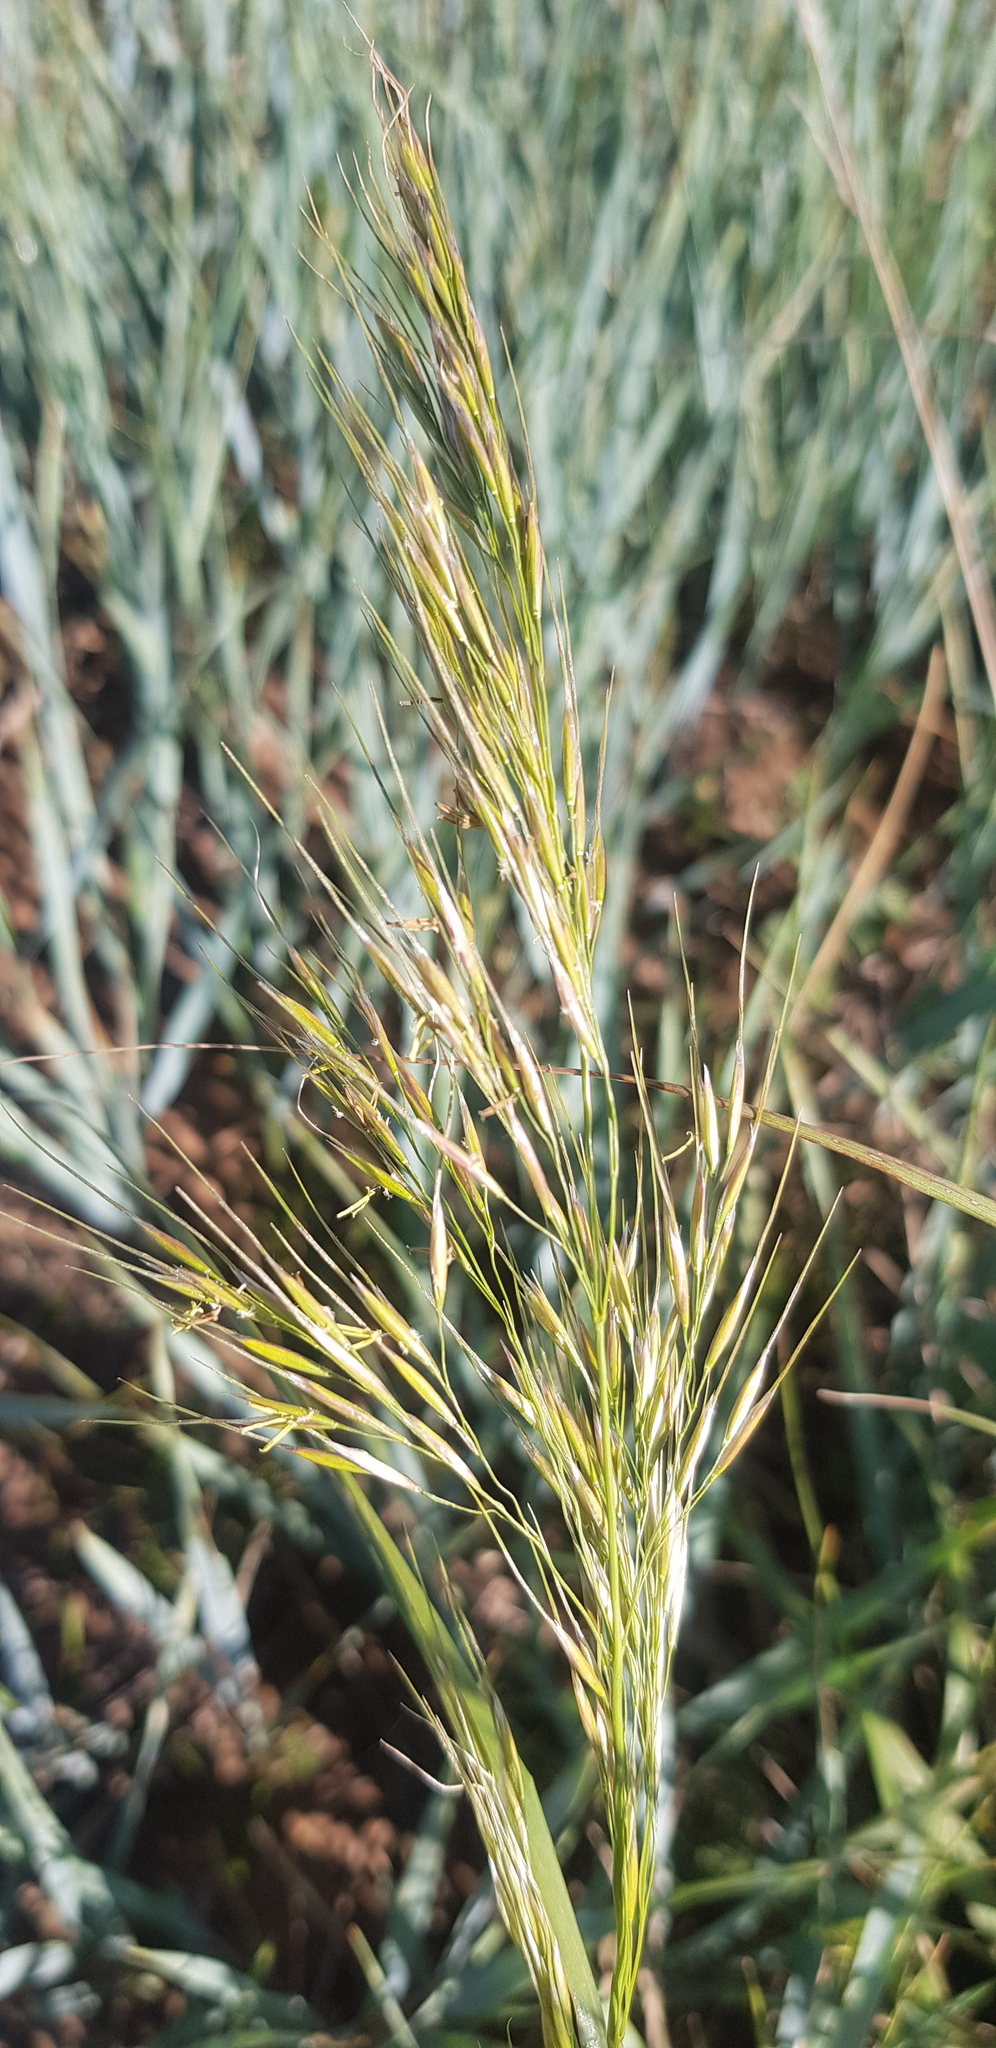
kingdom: Plantae
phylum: Tracheophyta
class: Liliopsida
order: Poales
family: Poaceae
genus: Achnatherum
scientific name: Achnatherum sibiricum
